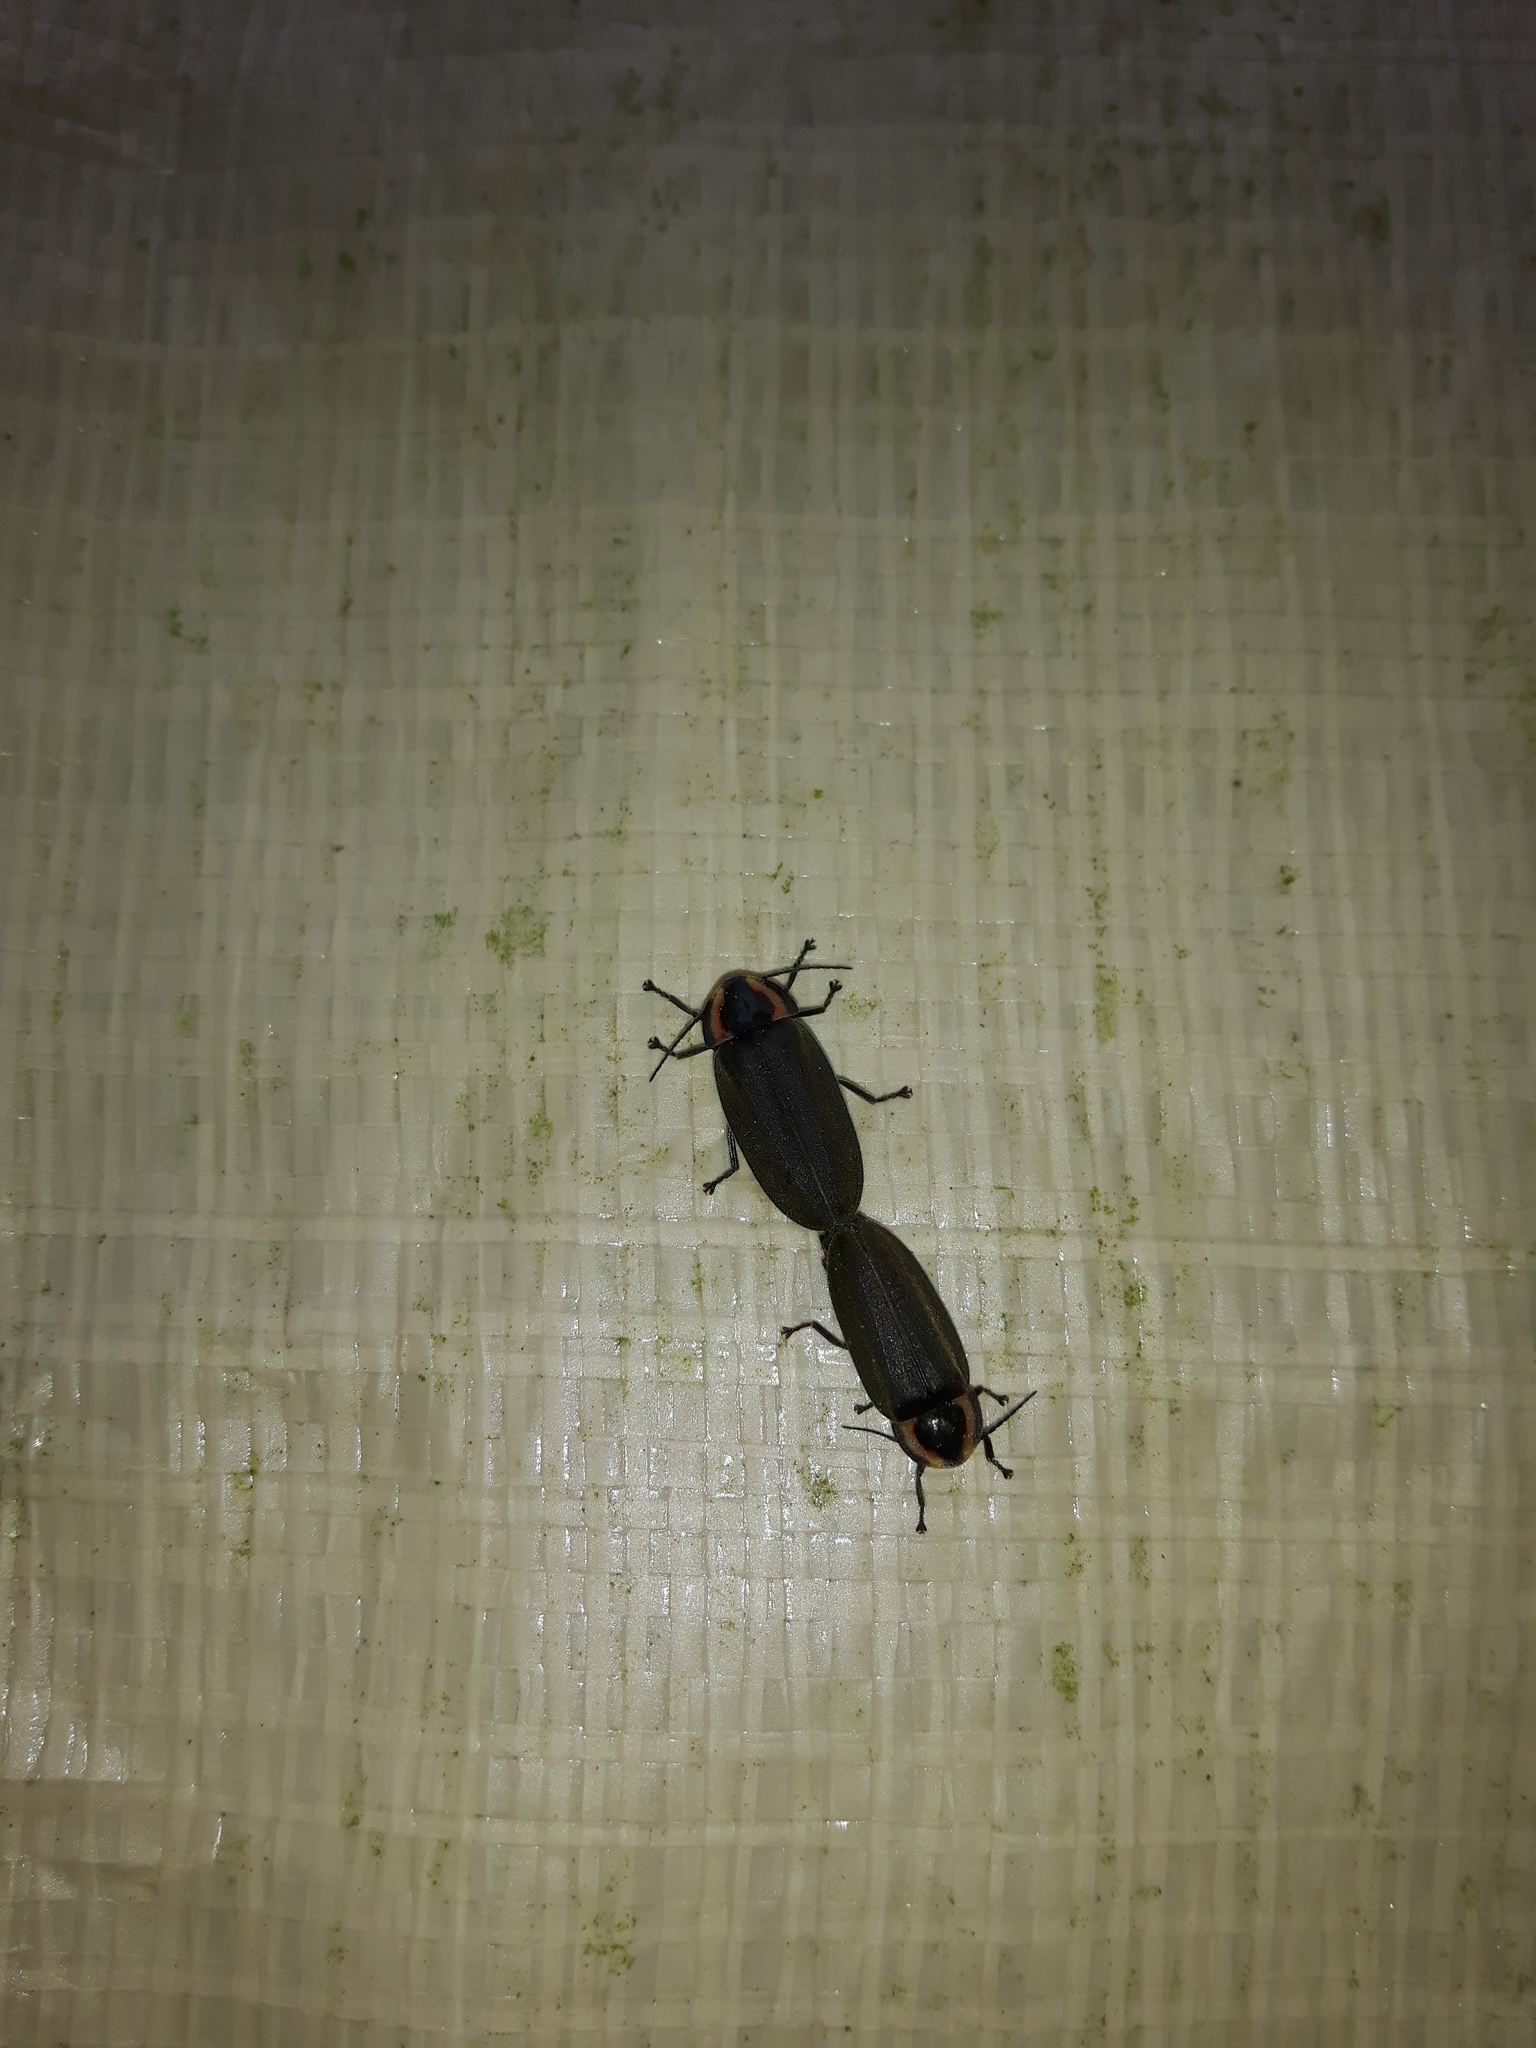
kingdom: Animalia
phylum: Arthropoda
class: Insecta
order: Coleoptera
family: Lampyridae
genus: Photinus
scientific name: Photinus corrusca
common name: Winter firefly
